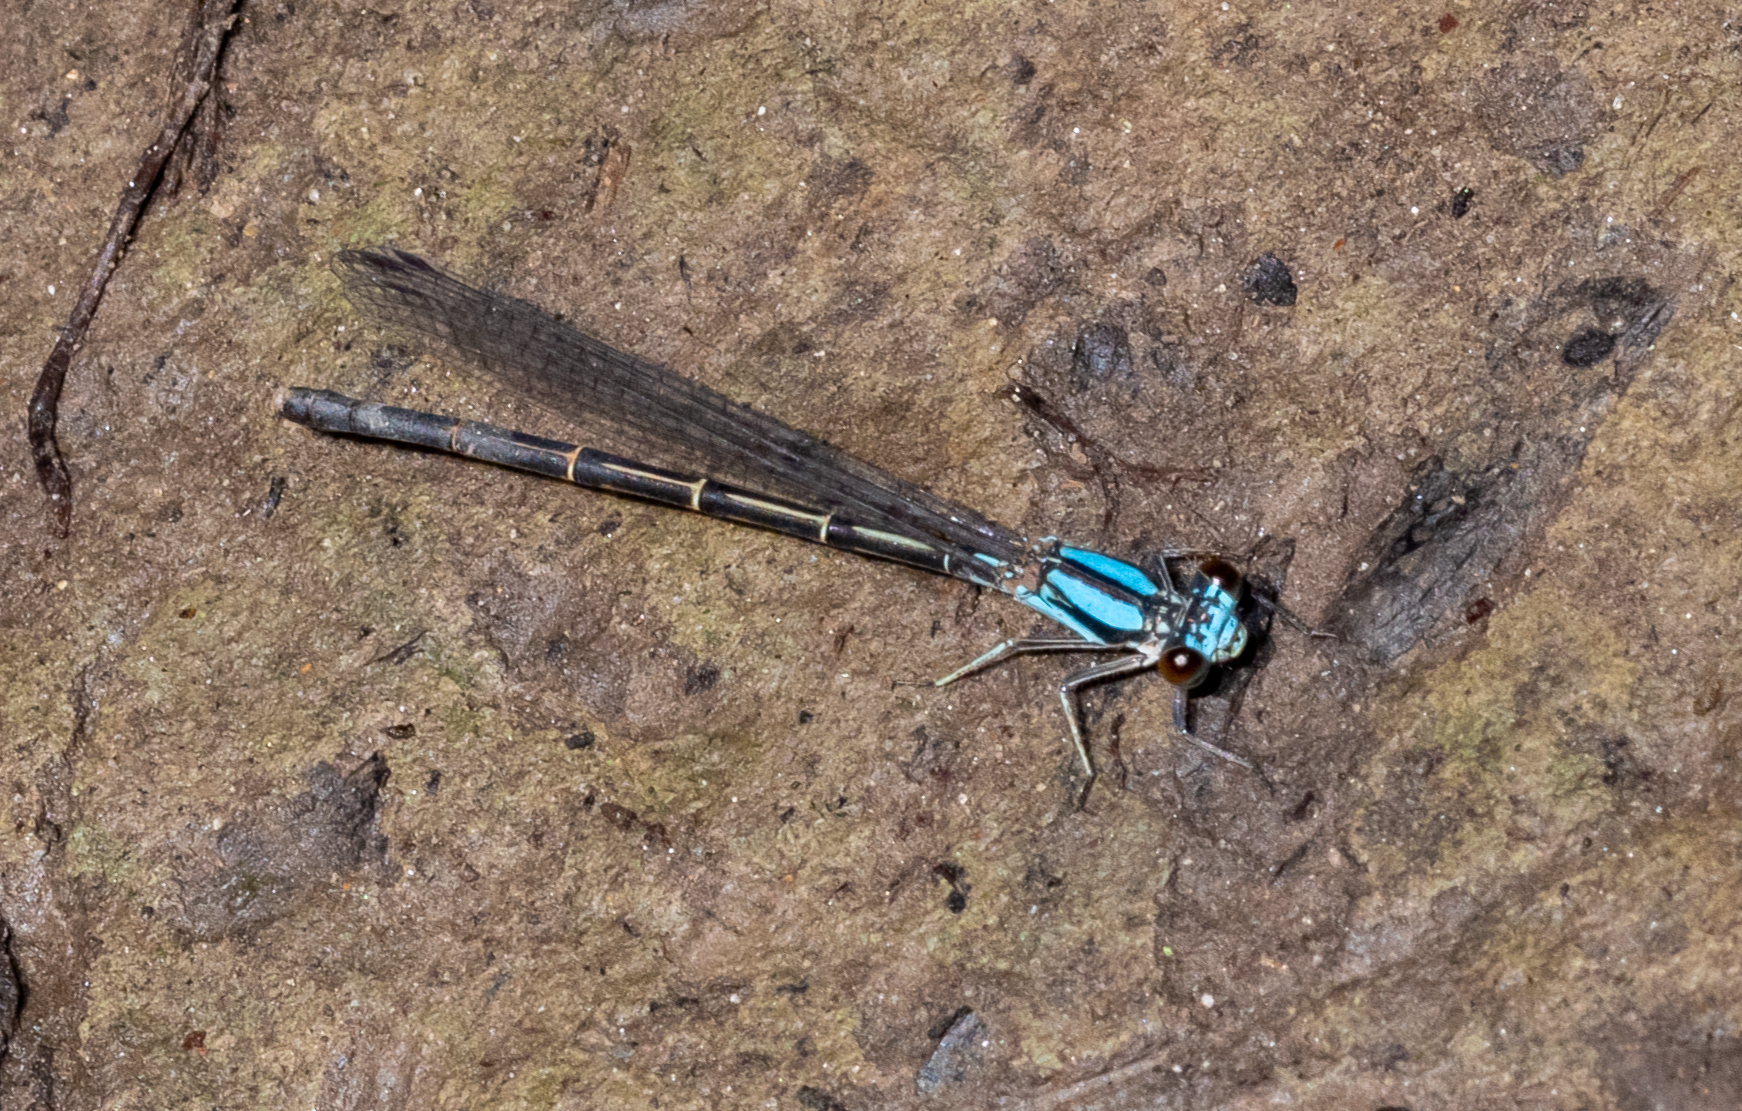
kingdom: Animalia
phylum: Arthropoda
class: Insecta
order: Odonata
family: Coenagrionidae
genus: Argia
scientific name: Argia tibialis
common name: Blue-tipped dancer
